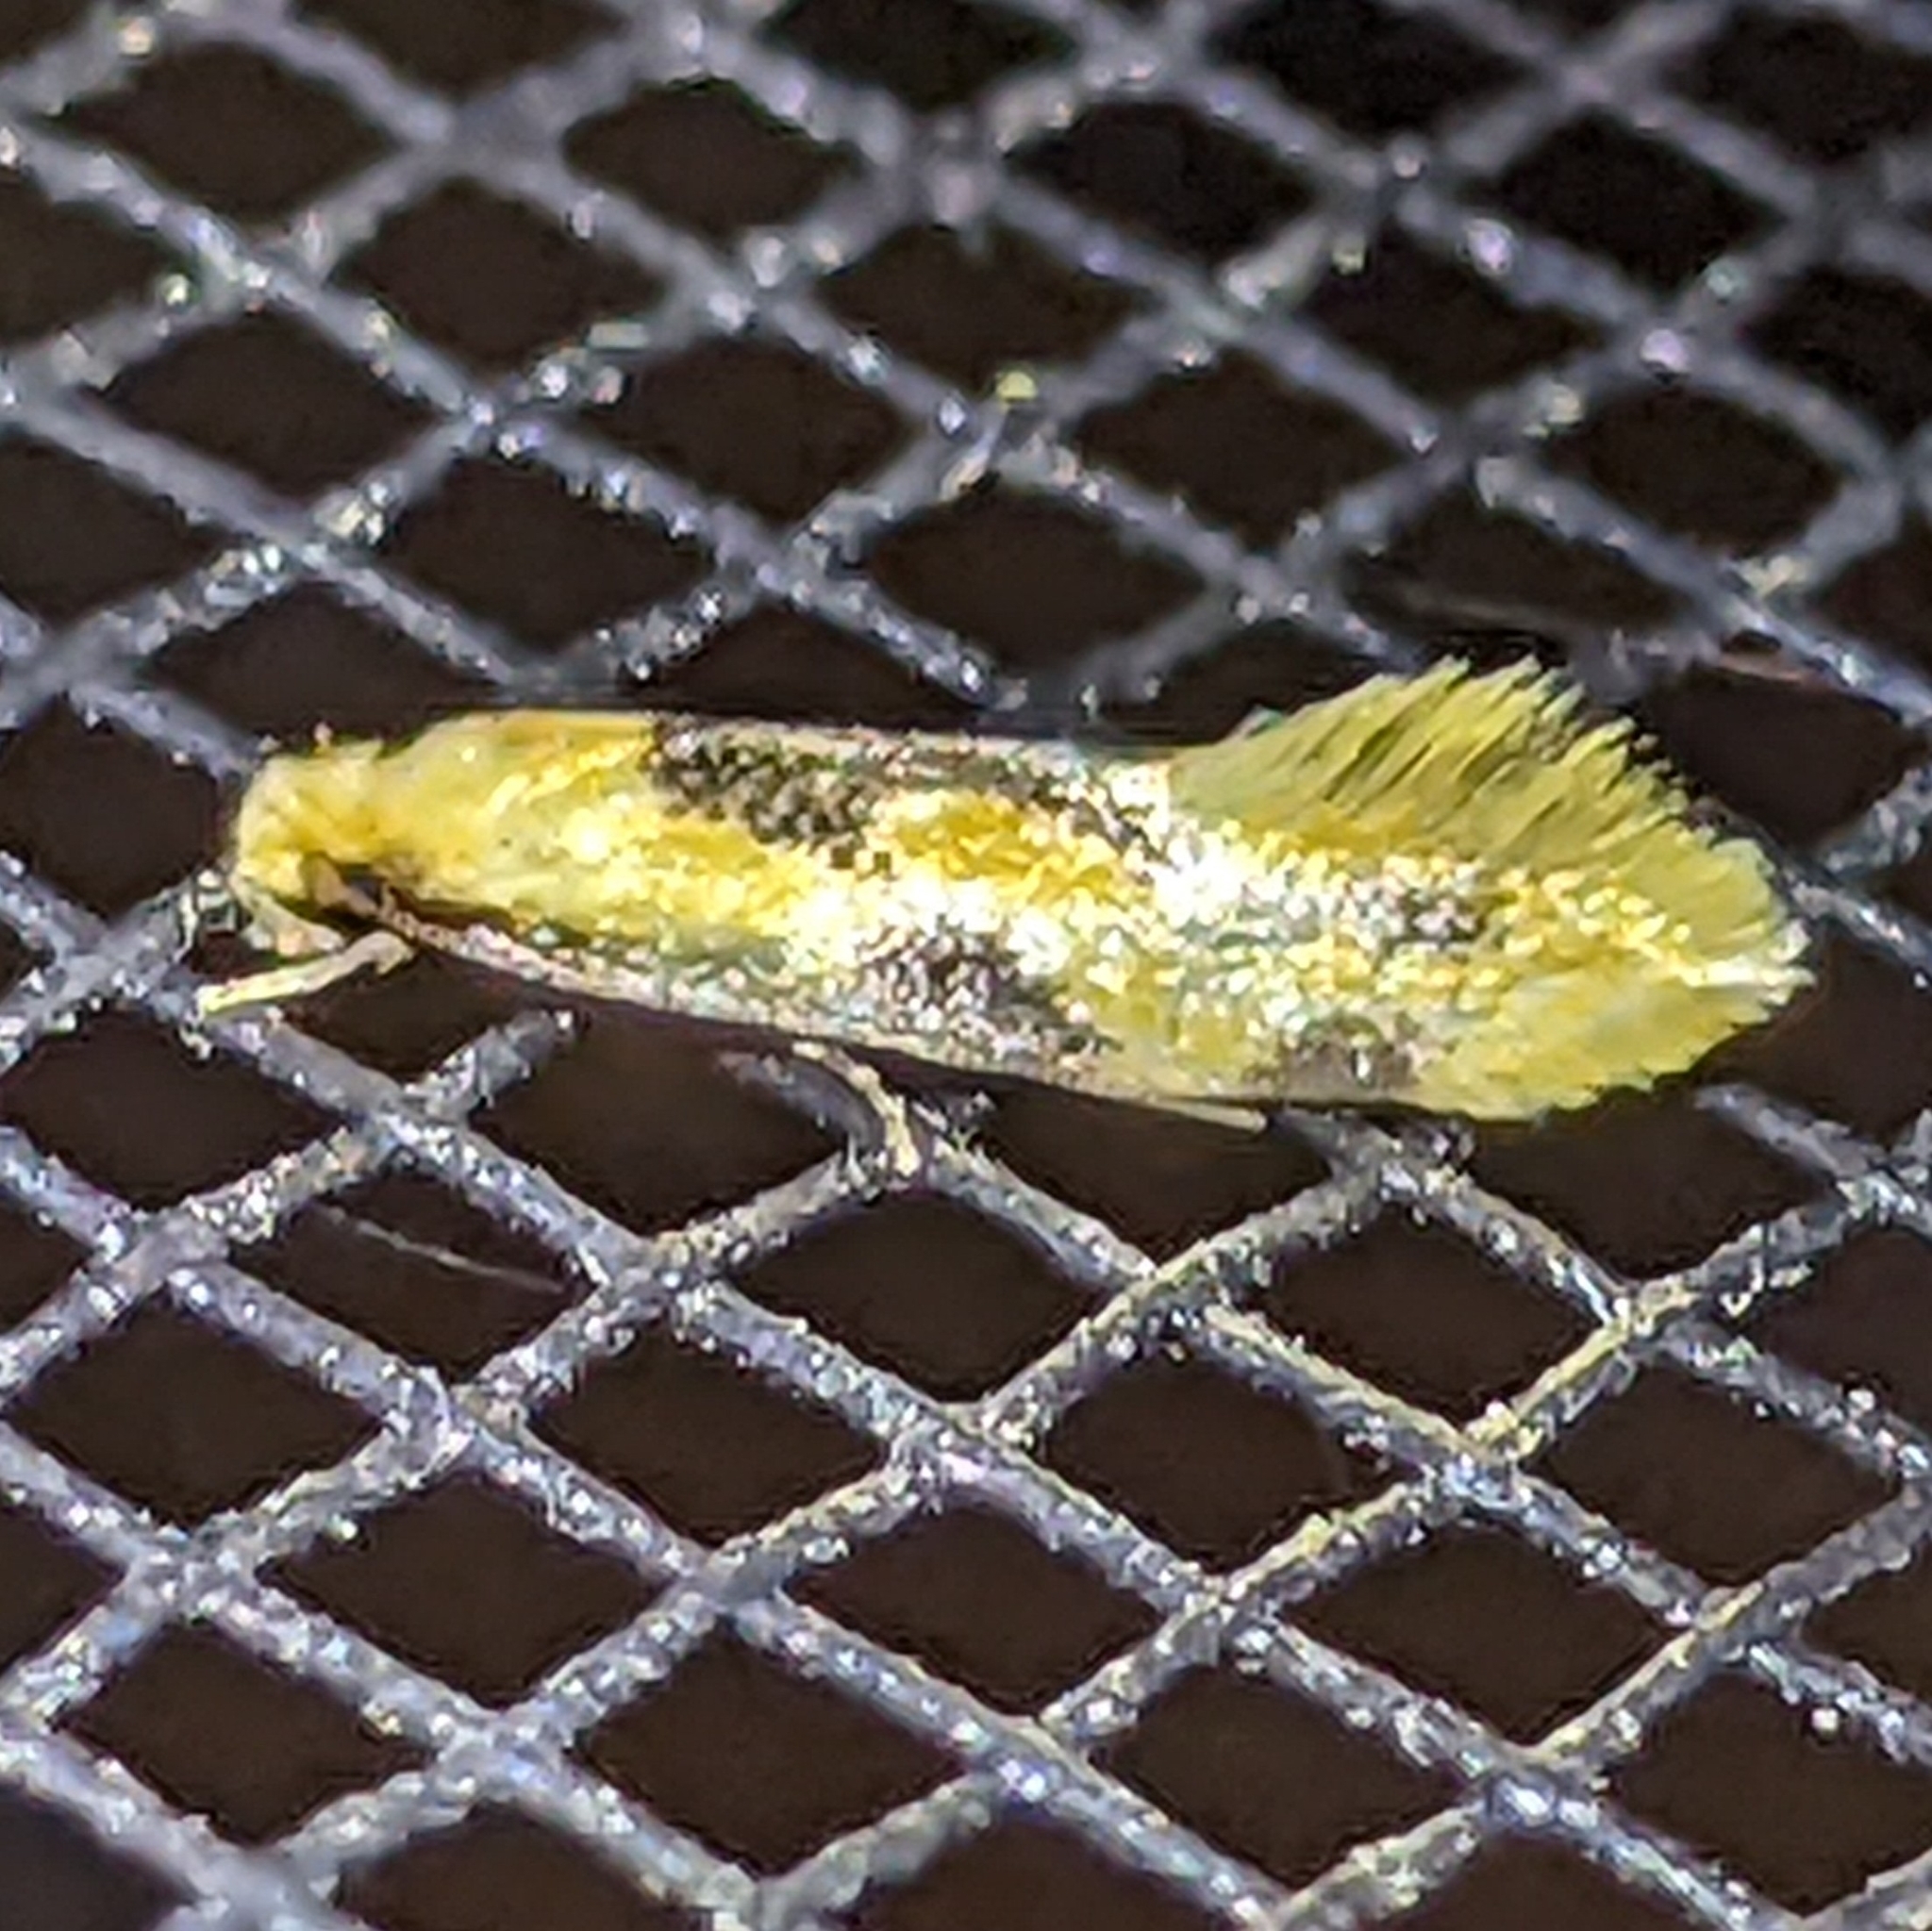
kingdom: Animalia
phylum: Arthropoda
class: Insecta
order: Lepidoptera
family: Meessiidae
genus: Hybroma
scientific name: Hybroma servulella
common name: Yellow wave moth
